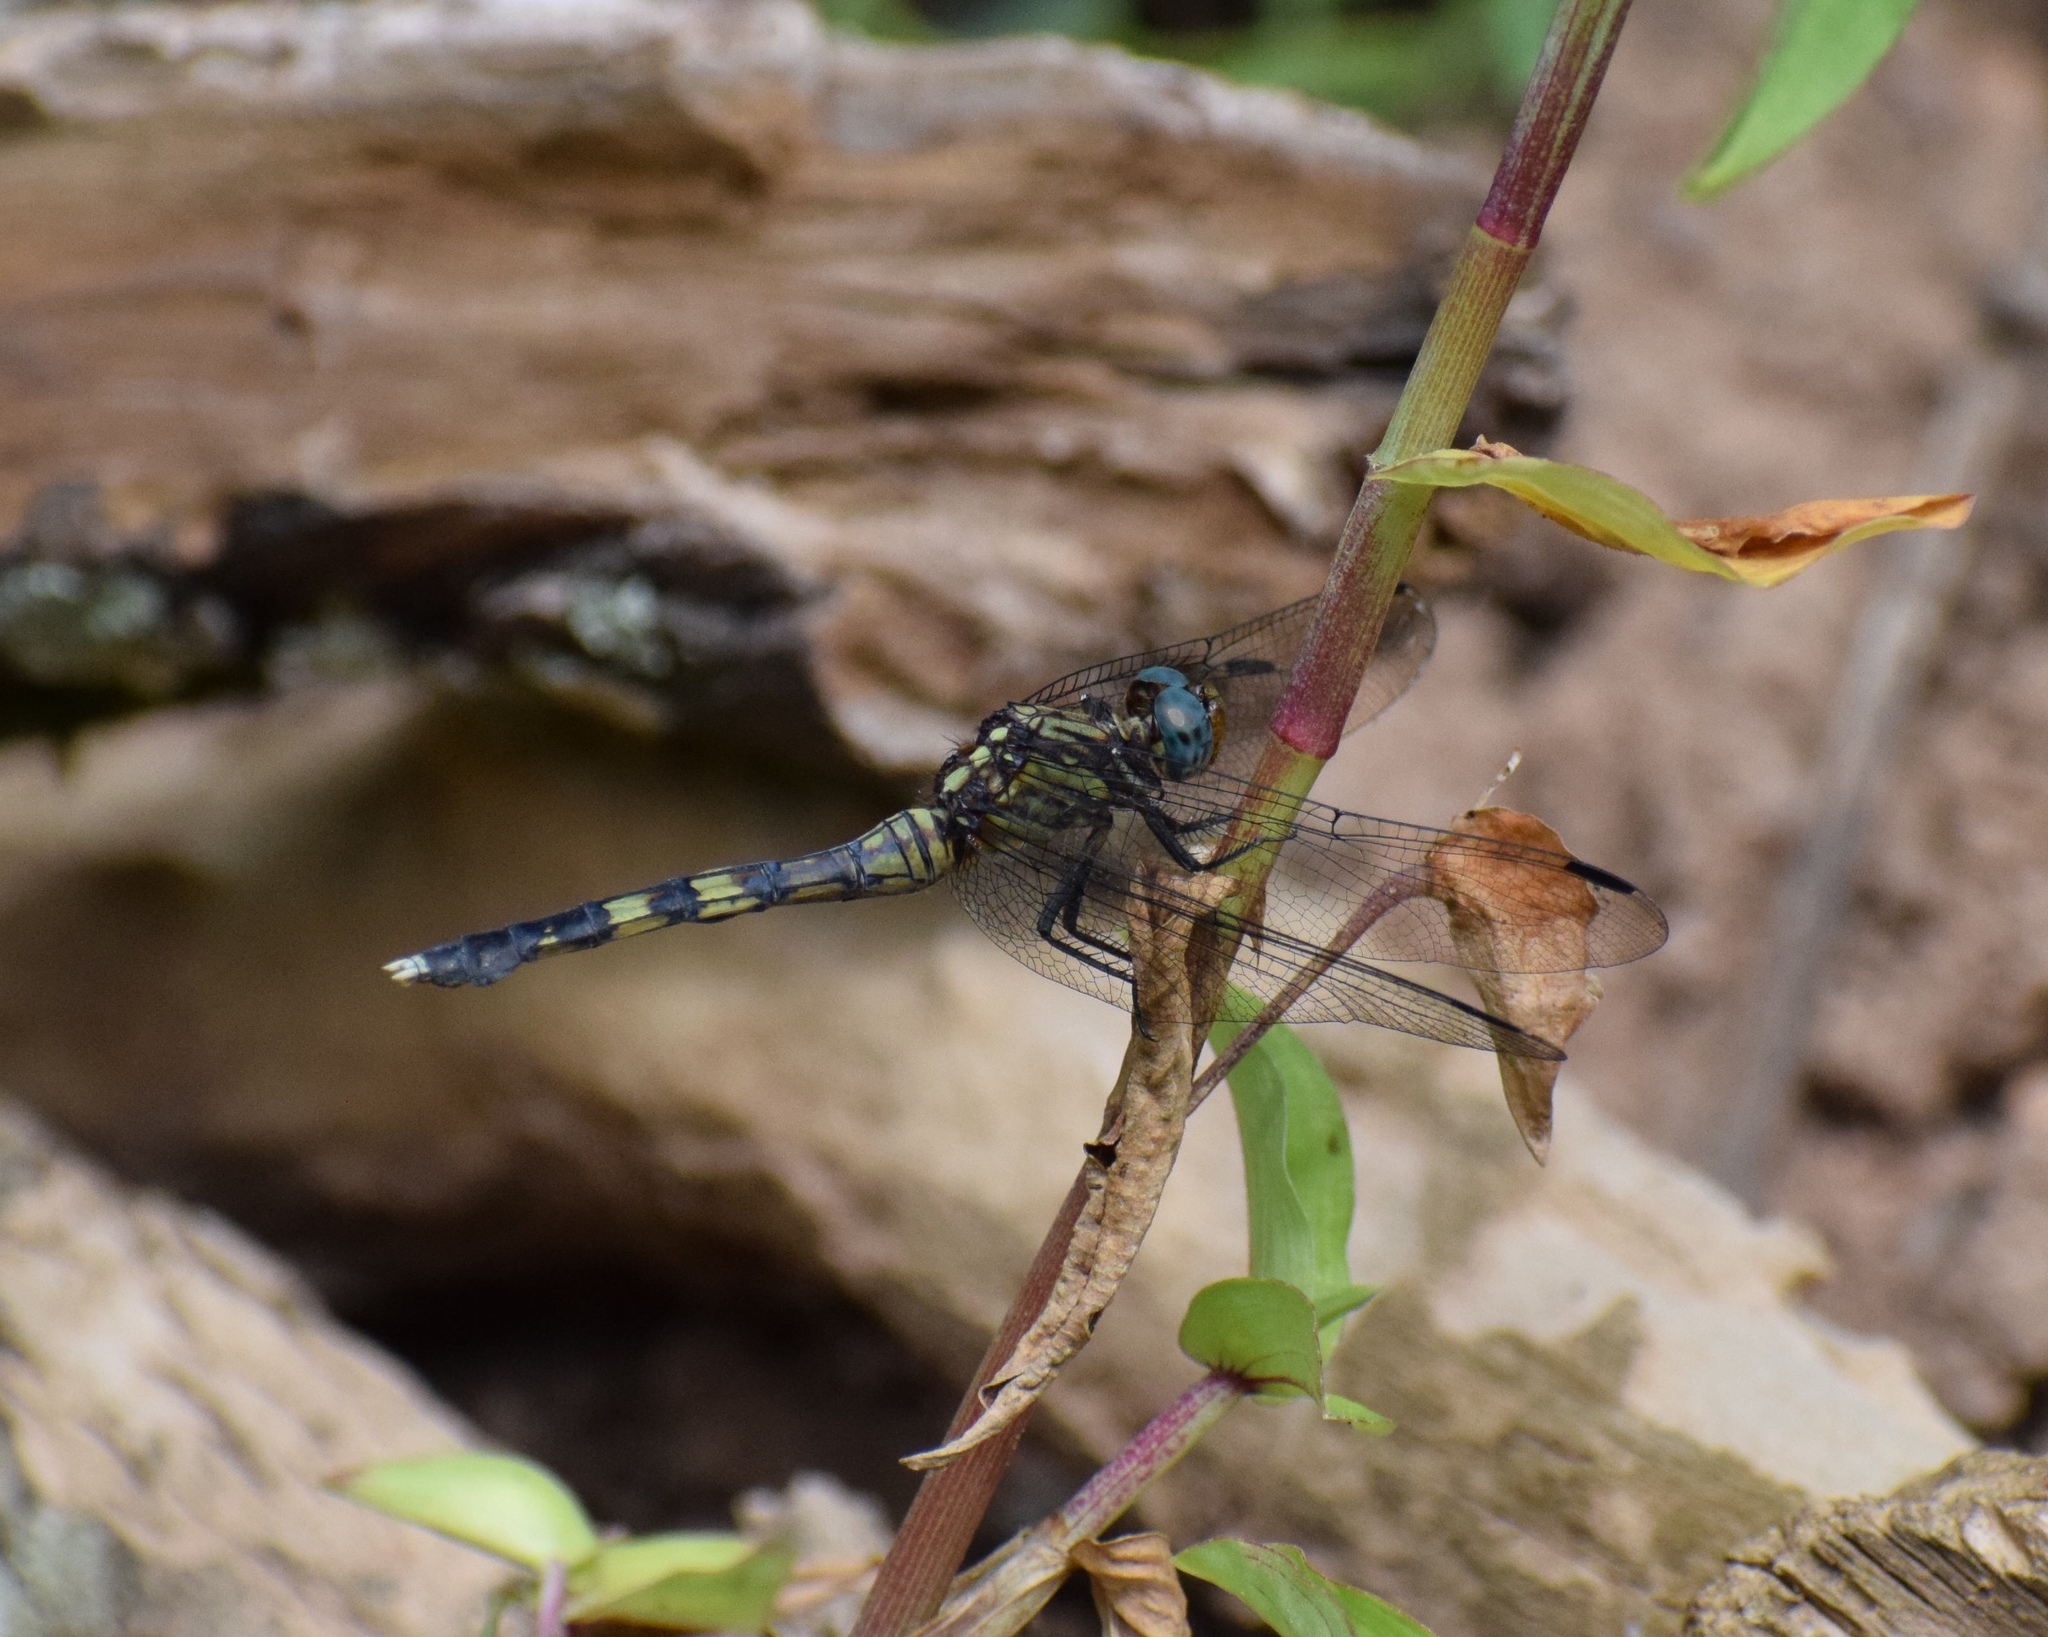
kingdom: Animalia
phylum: Arthropoda
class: Insecta
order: Odonata
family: Libellulidae
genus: Orthetrum
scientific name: Orthetrum julia
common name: Julia skimmer
